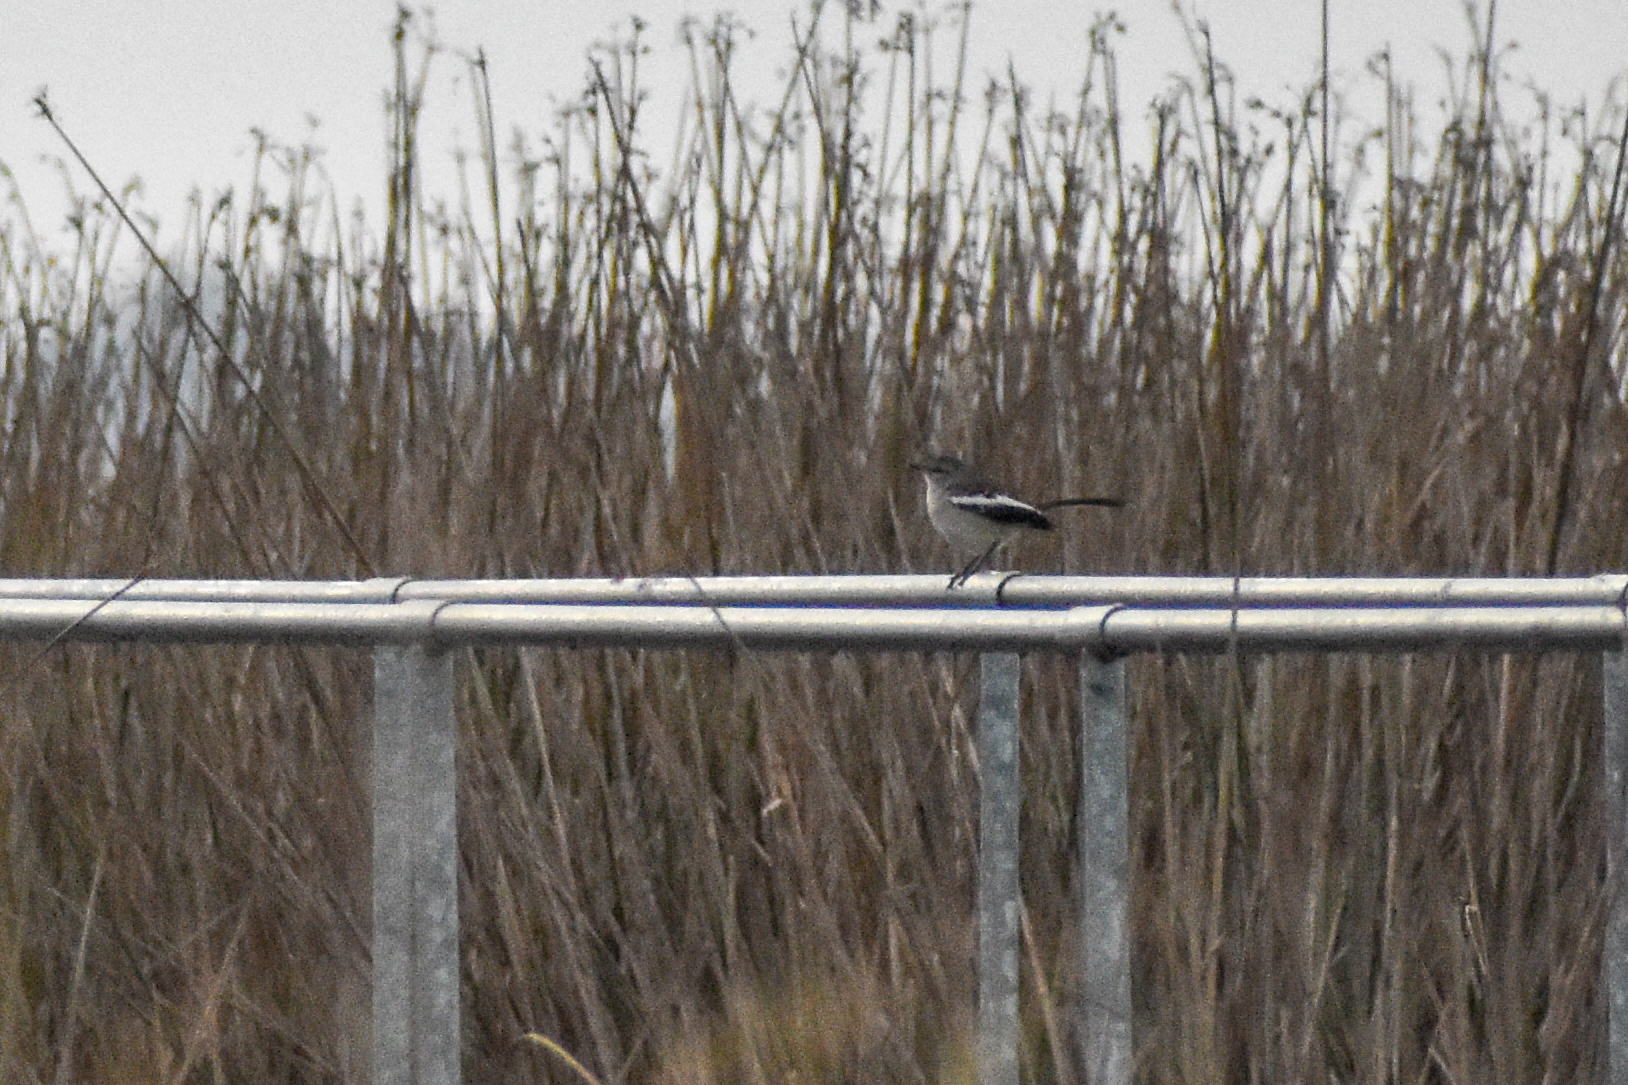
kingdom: Animalia
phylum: Chordata
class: Aves
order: Passeriformes
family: Mimidae
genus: Mimus
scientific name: Mimus triurus
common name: White-banded mockingbird
